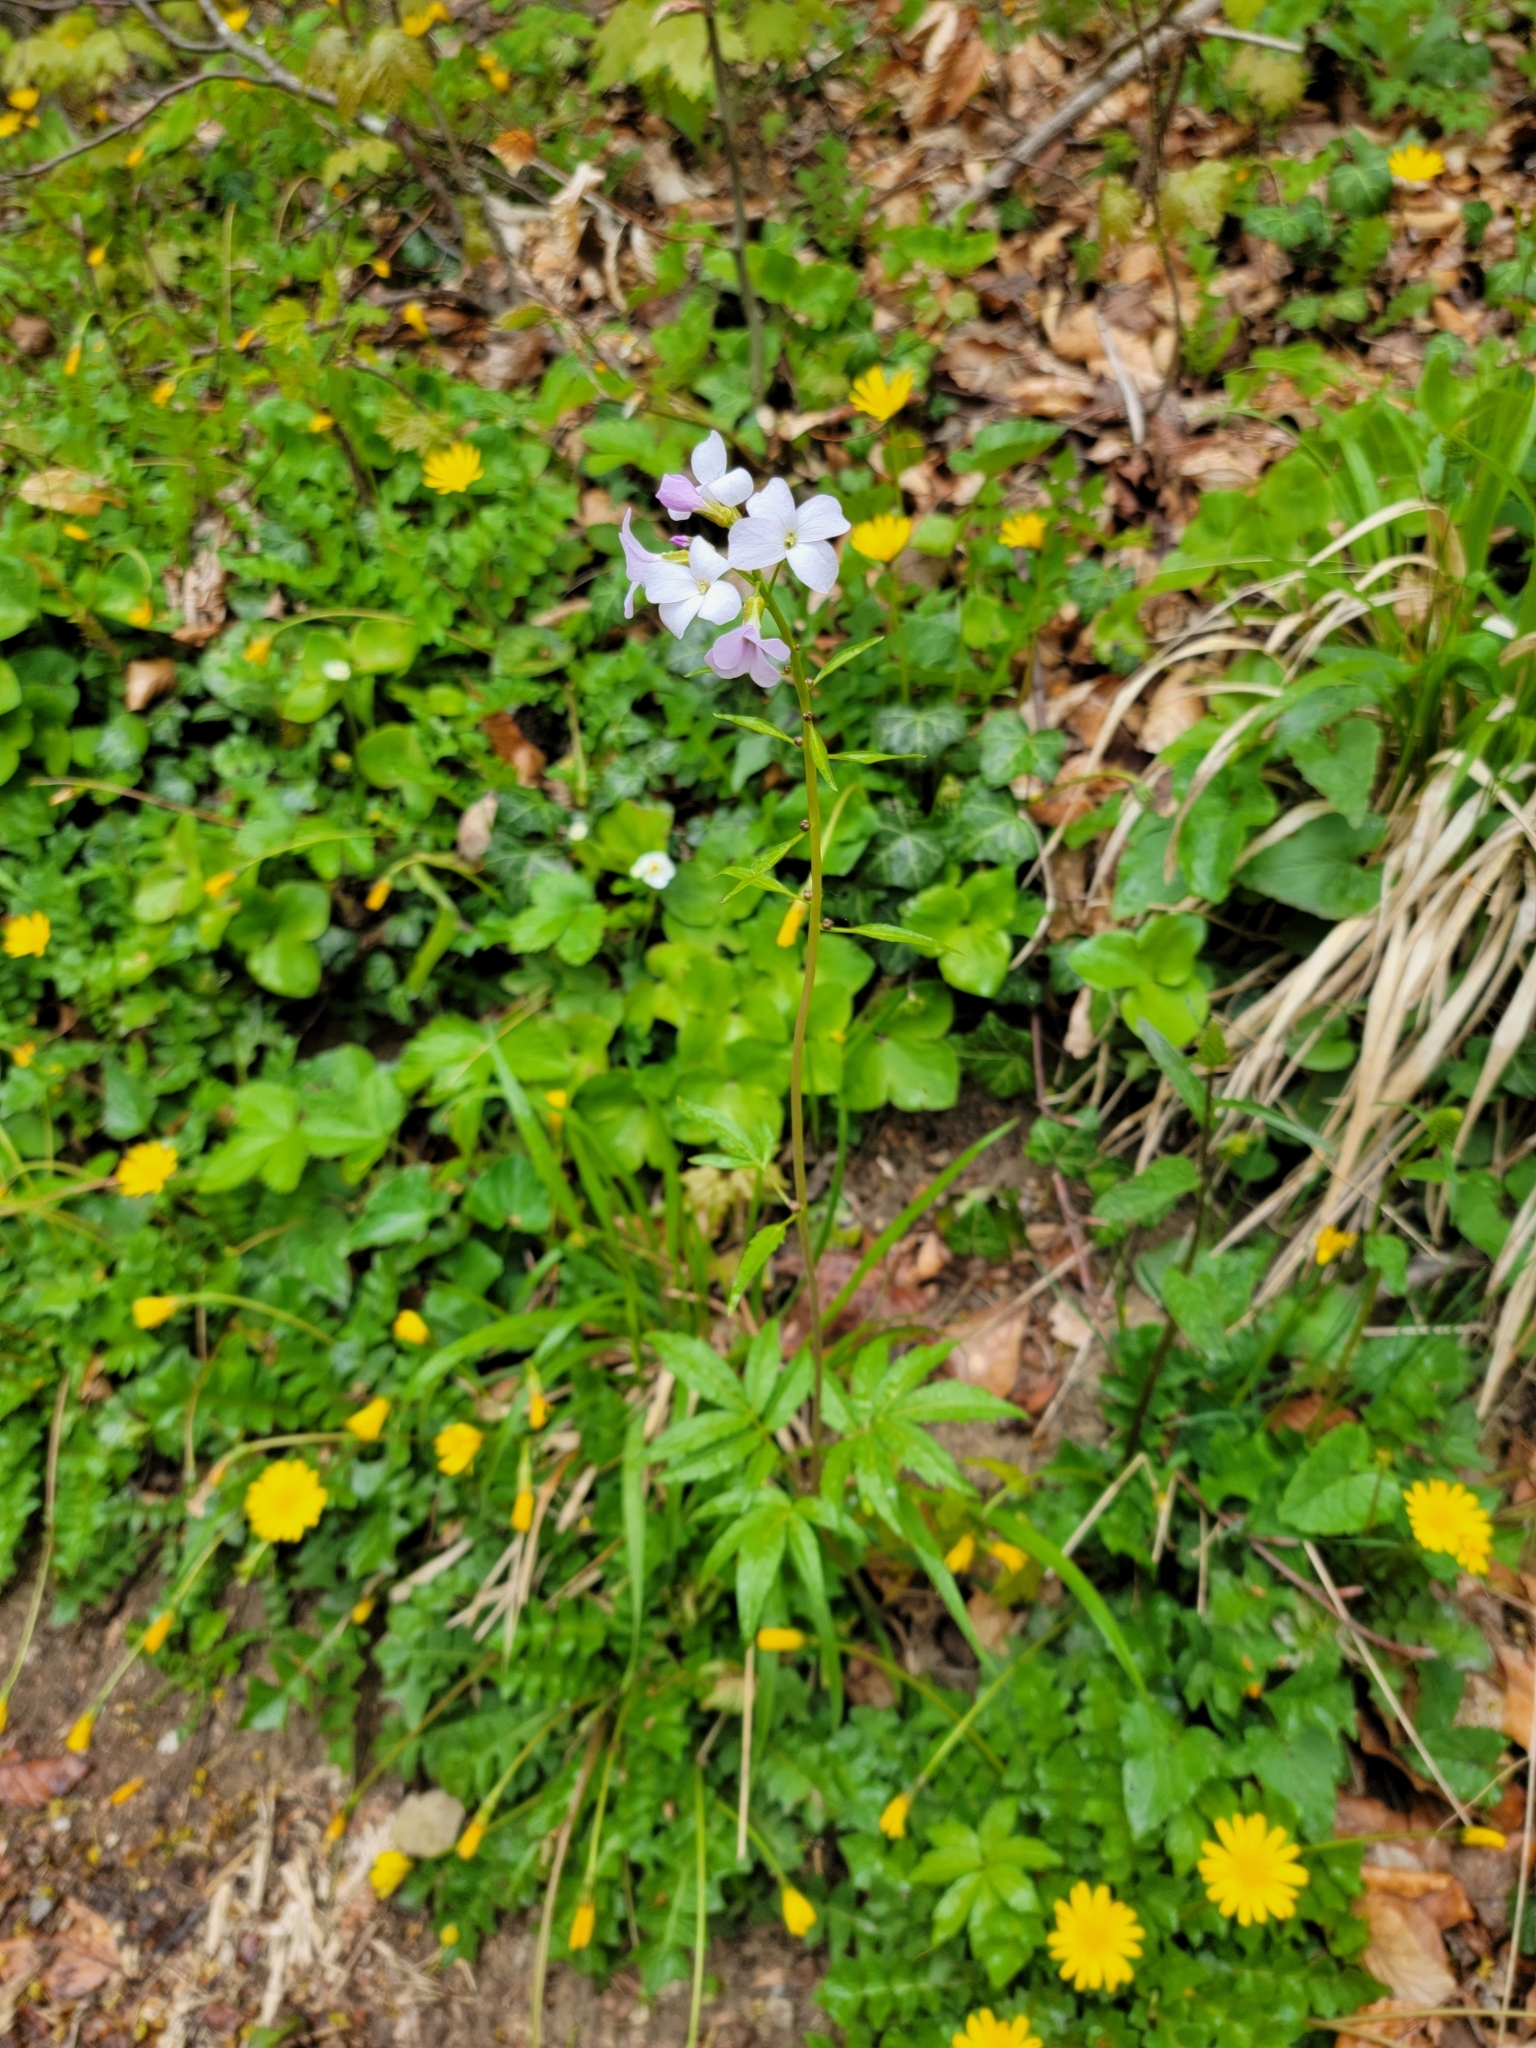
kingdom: Plantae
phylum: Tracheophyta
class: Magnoliopsida
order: Brassicales
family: Brassicaceae
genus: Cardamine
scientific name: Cardamine bulbifera
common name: Coralroot bittercress
